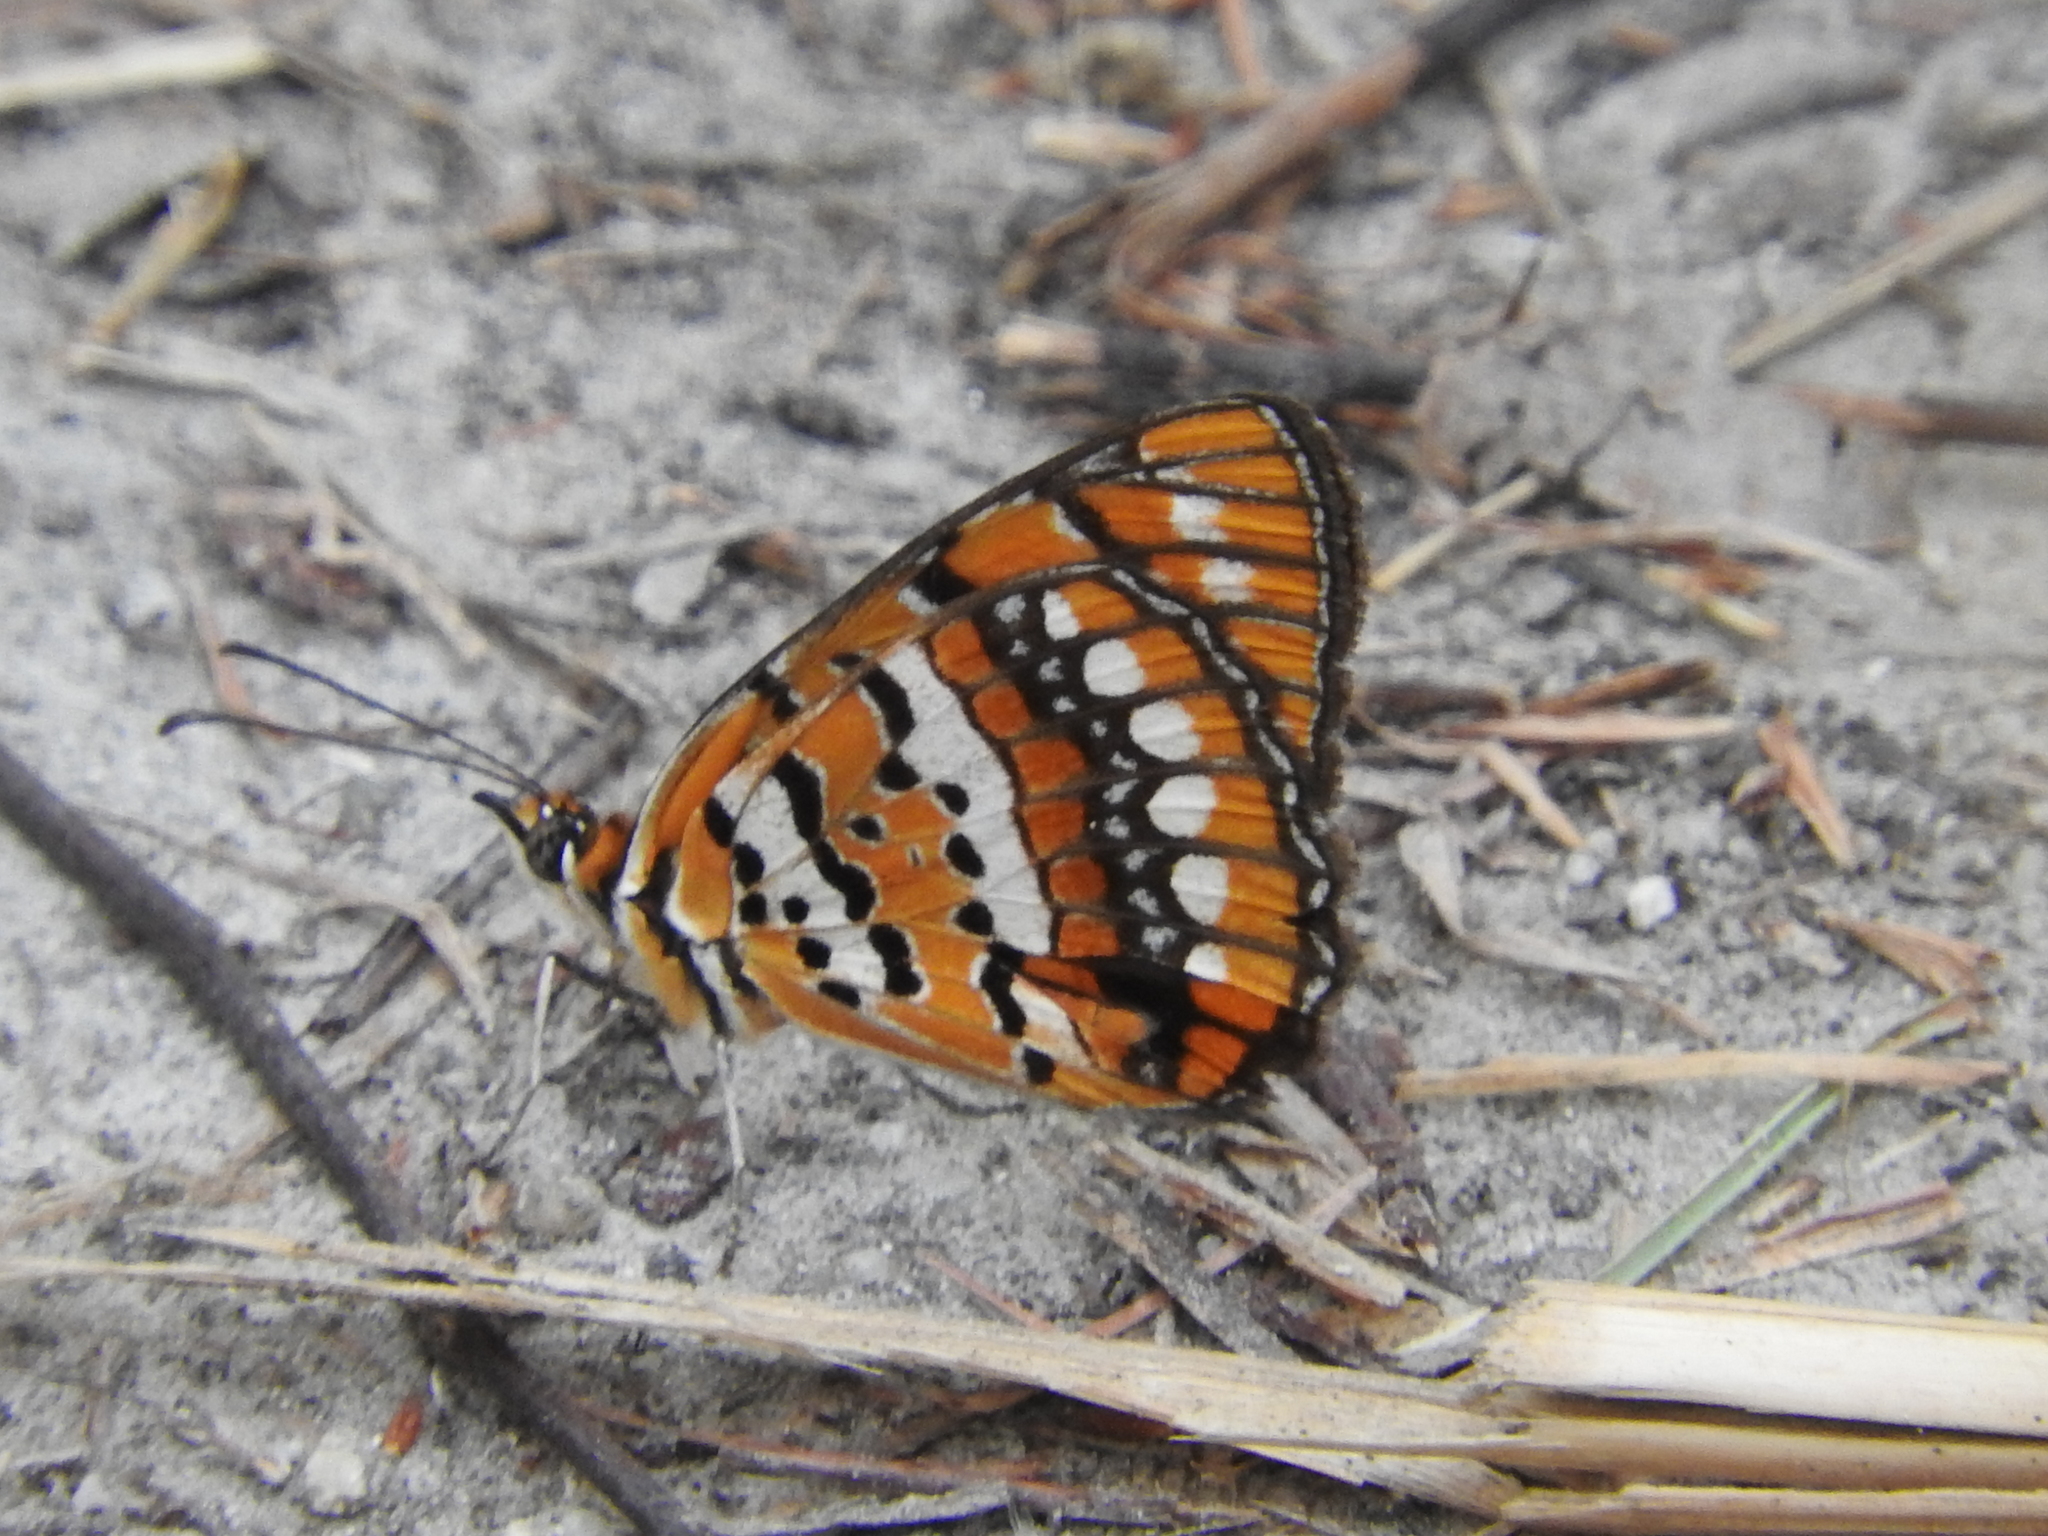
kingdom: Animalia
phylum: Arthropoda
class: Insecta
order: Lepidoptera
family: Nymphalidae
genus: Byblia
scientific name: Byblia ilithyia
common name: Spotted joker
